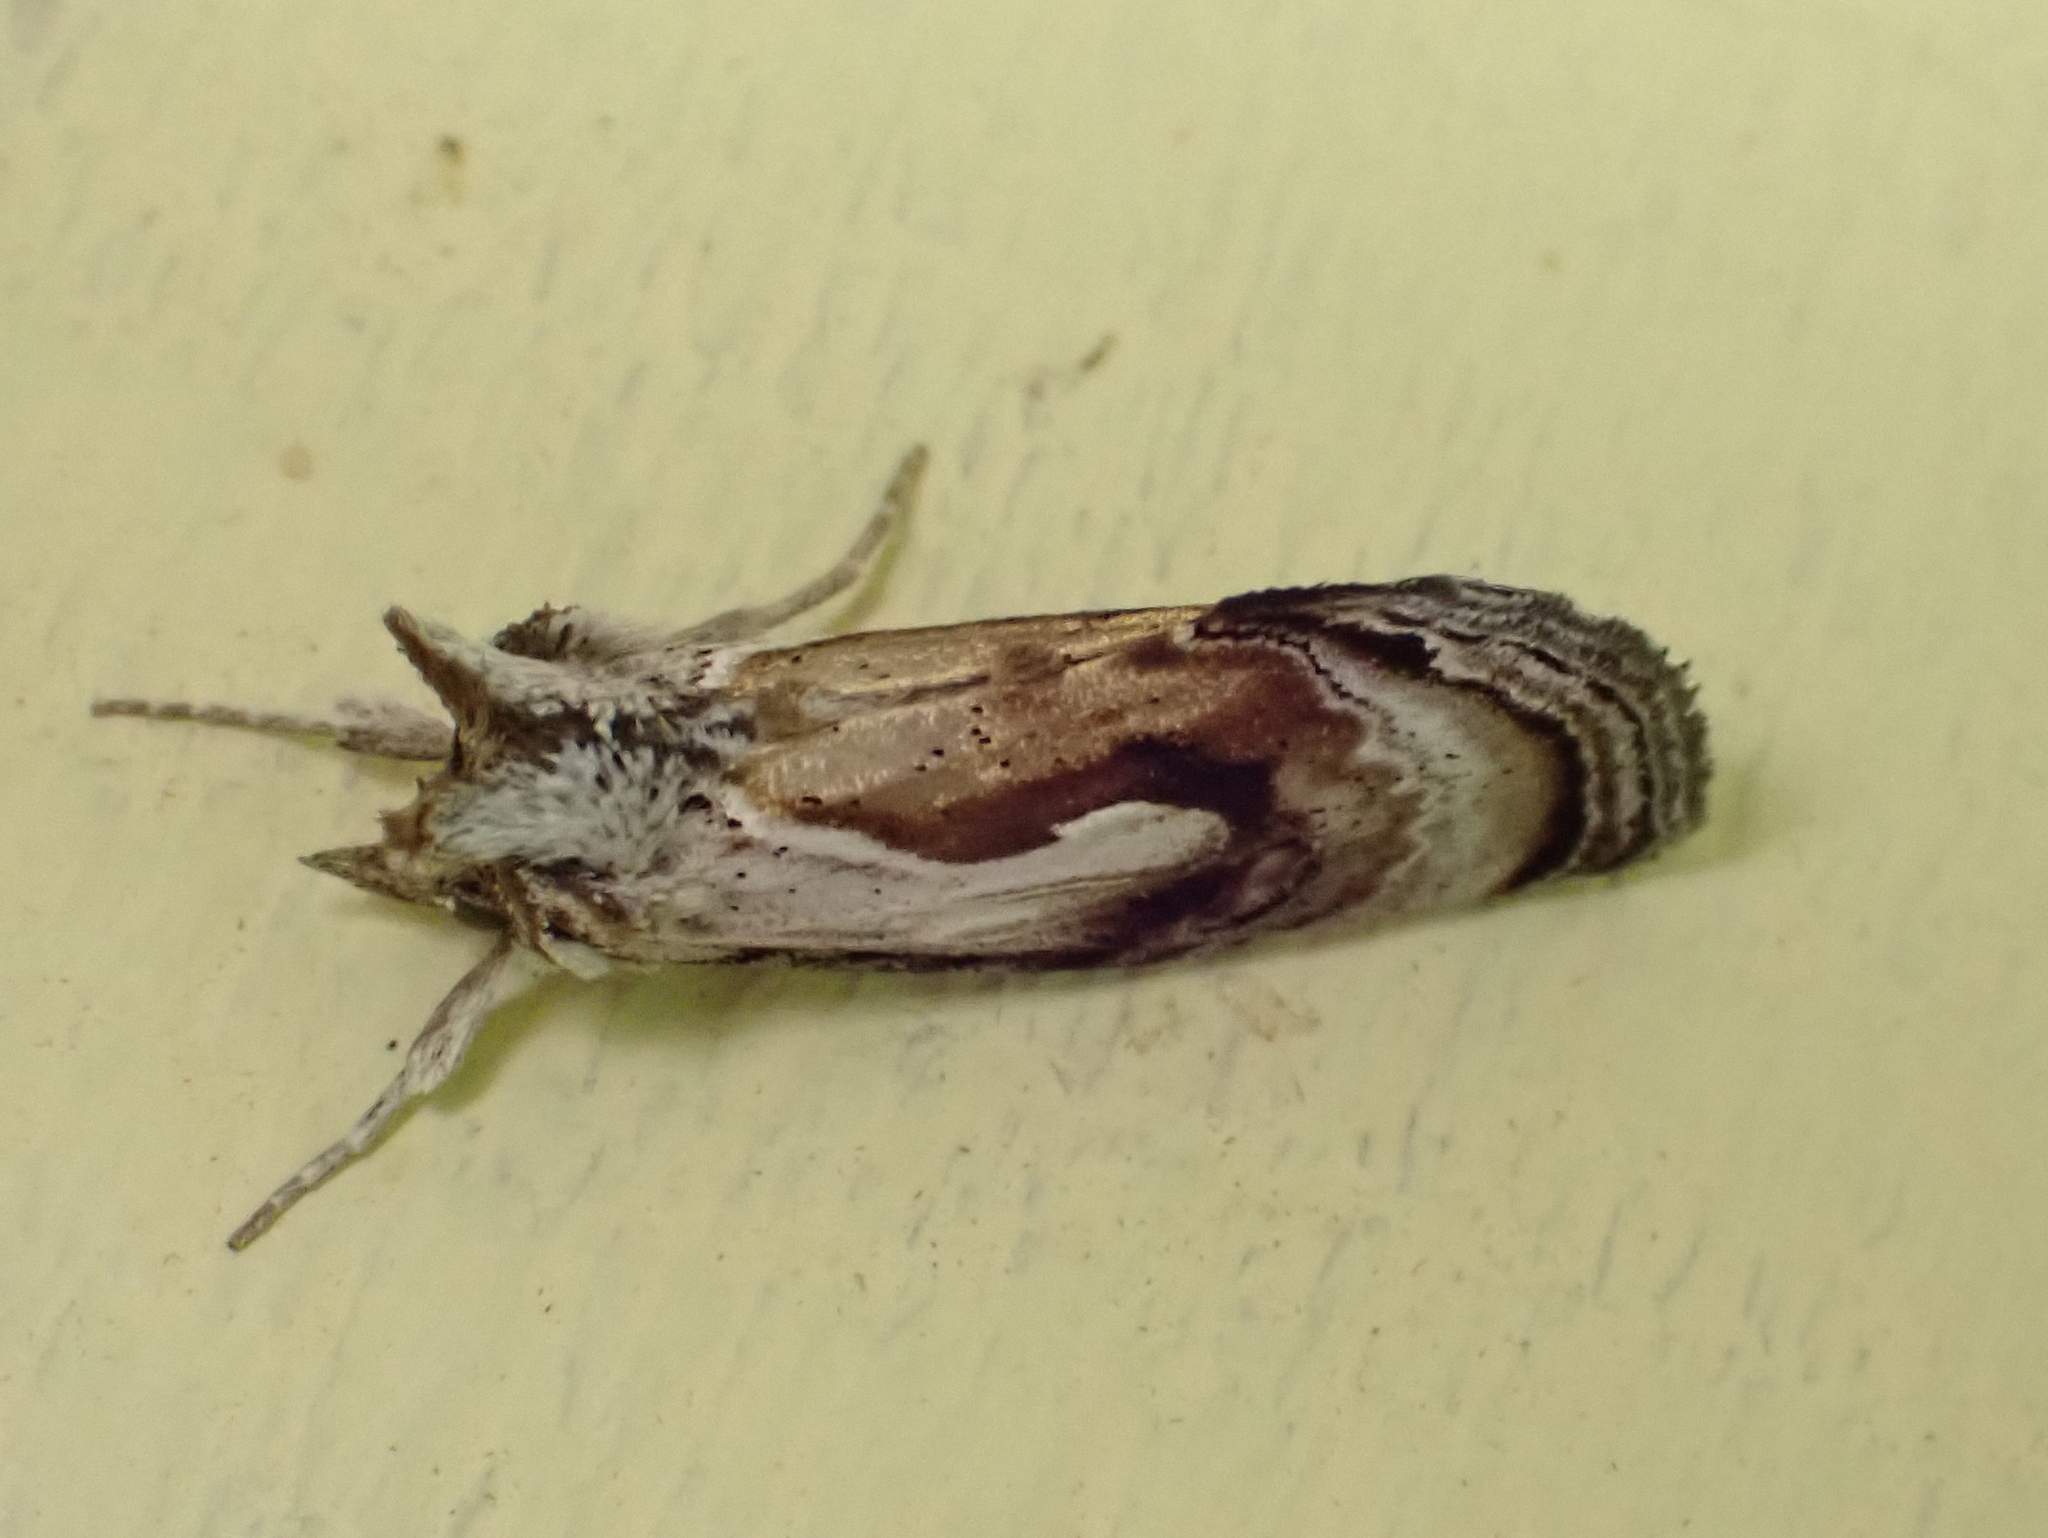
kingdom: Animalia
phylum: Arthropoda
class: Insecta
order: Lepidoptera
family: Noctuidae
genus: Chrysanympha
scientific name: Chrysanympha formosa
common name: Formosa looper moth
